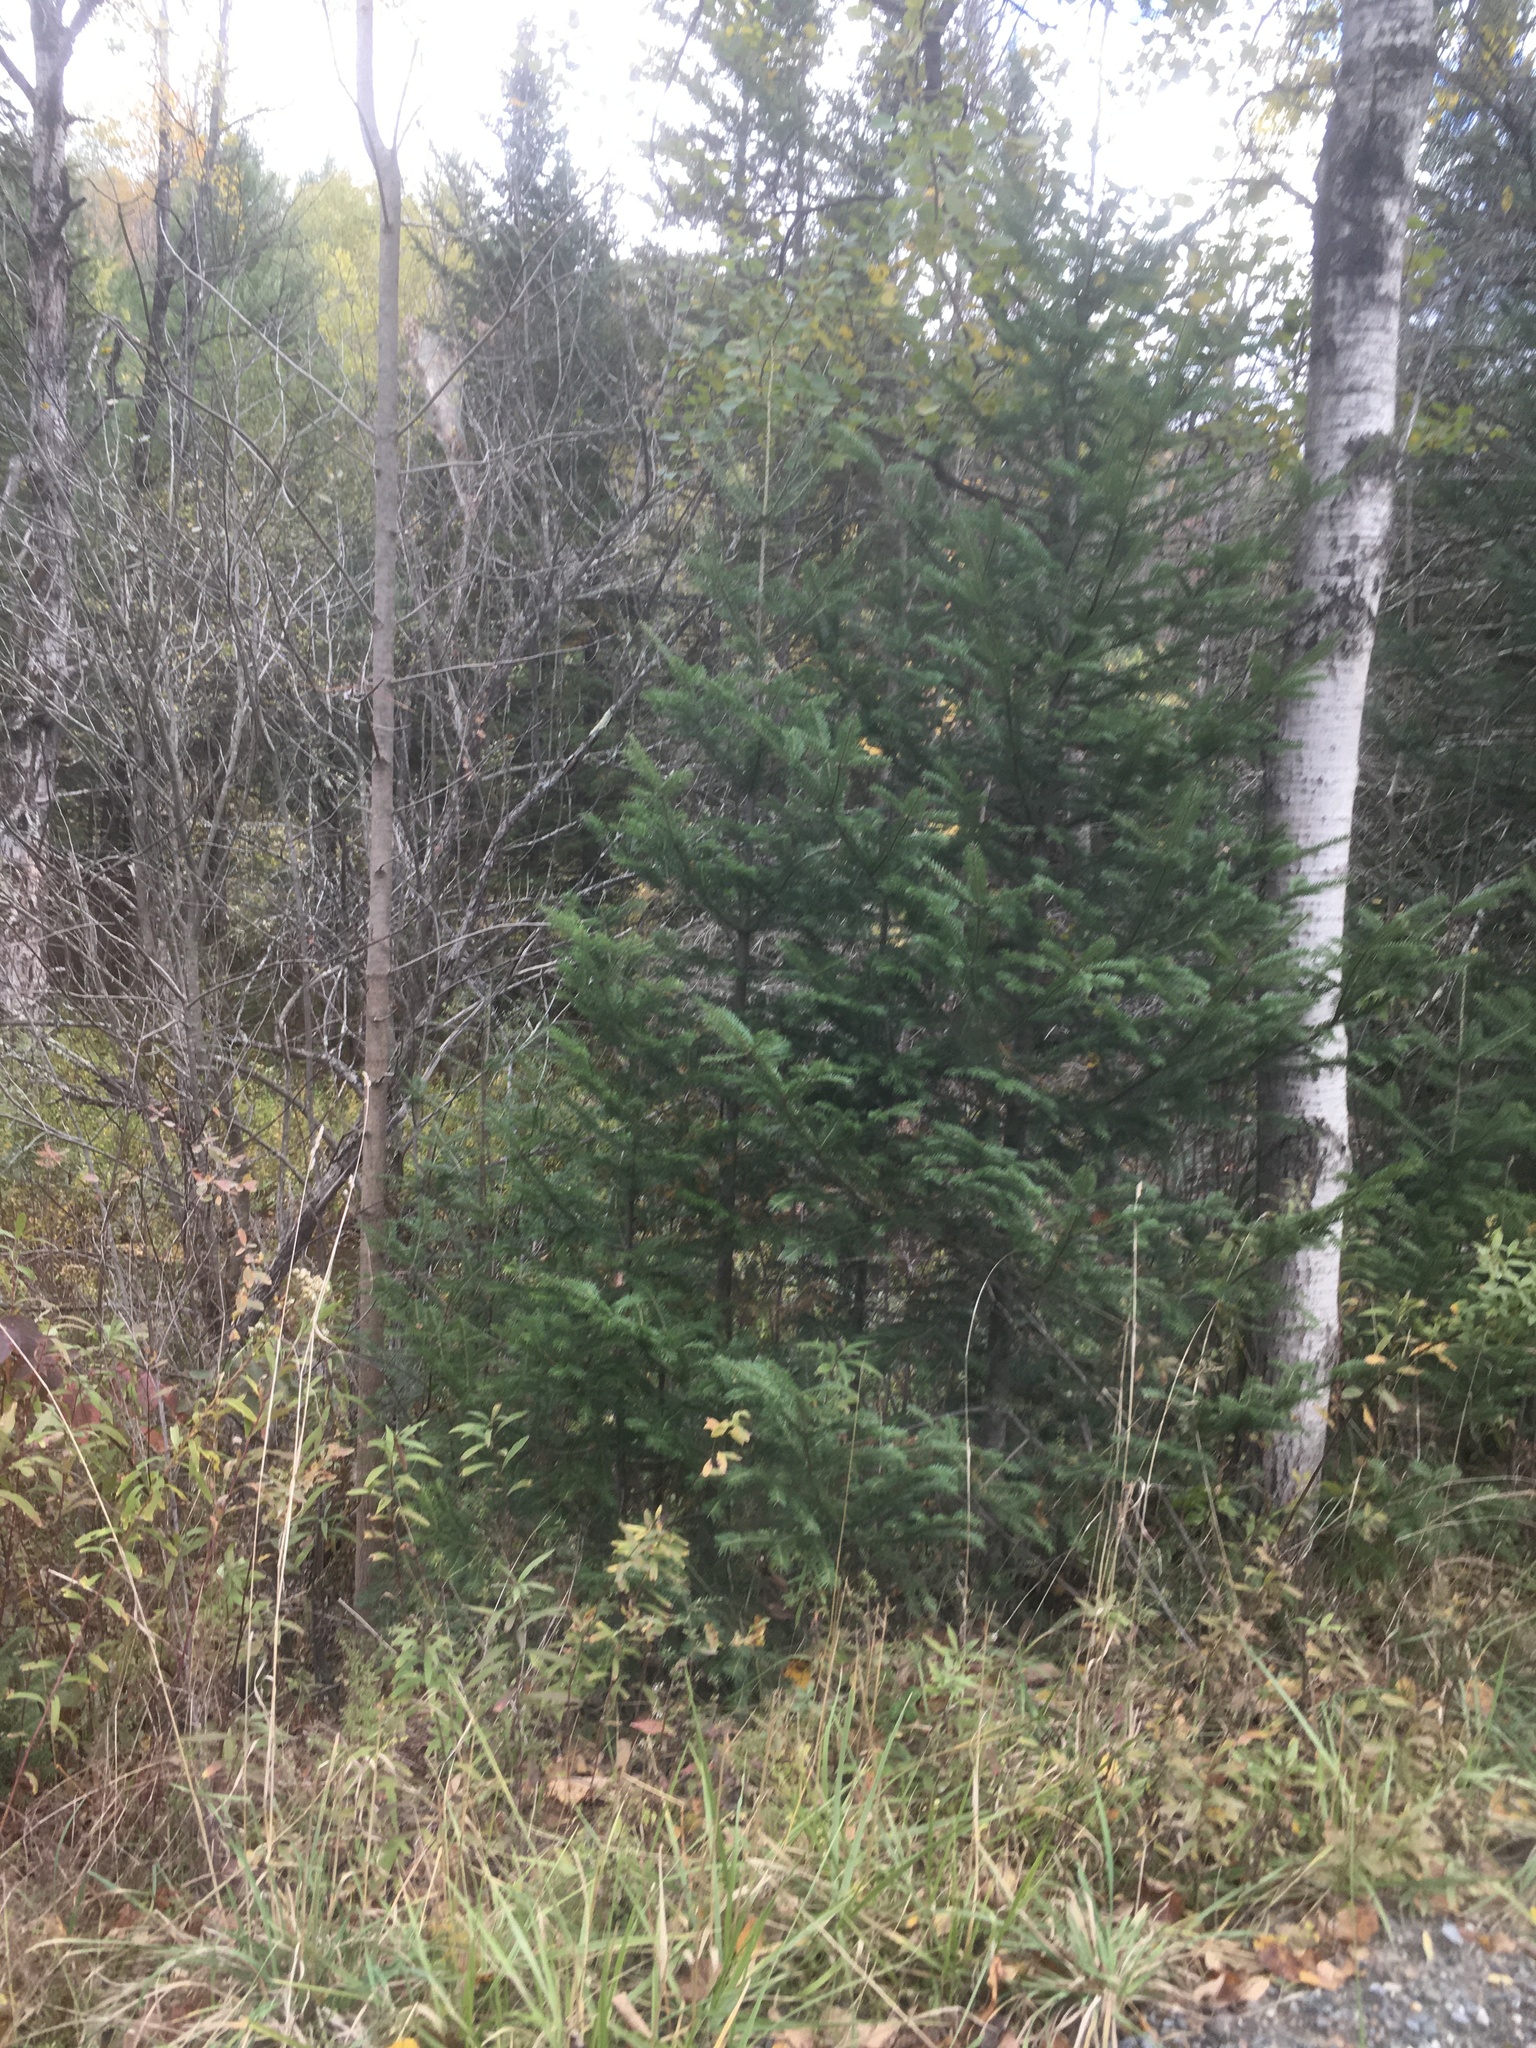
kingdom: Plantae
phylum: Tracheophyta
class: Pinopsida
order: Pinales
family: Pinaceae
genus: Abies
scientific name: Abies balsamea
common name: Balsam fir
